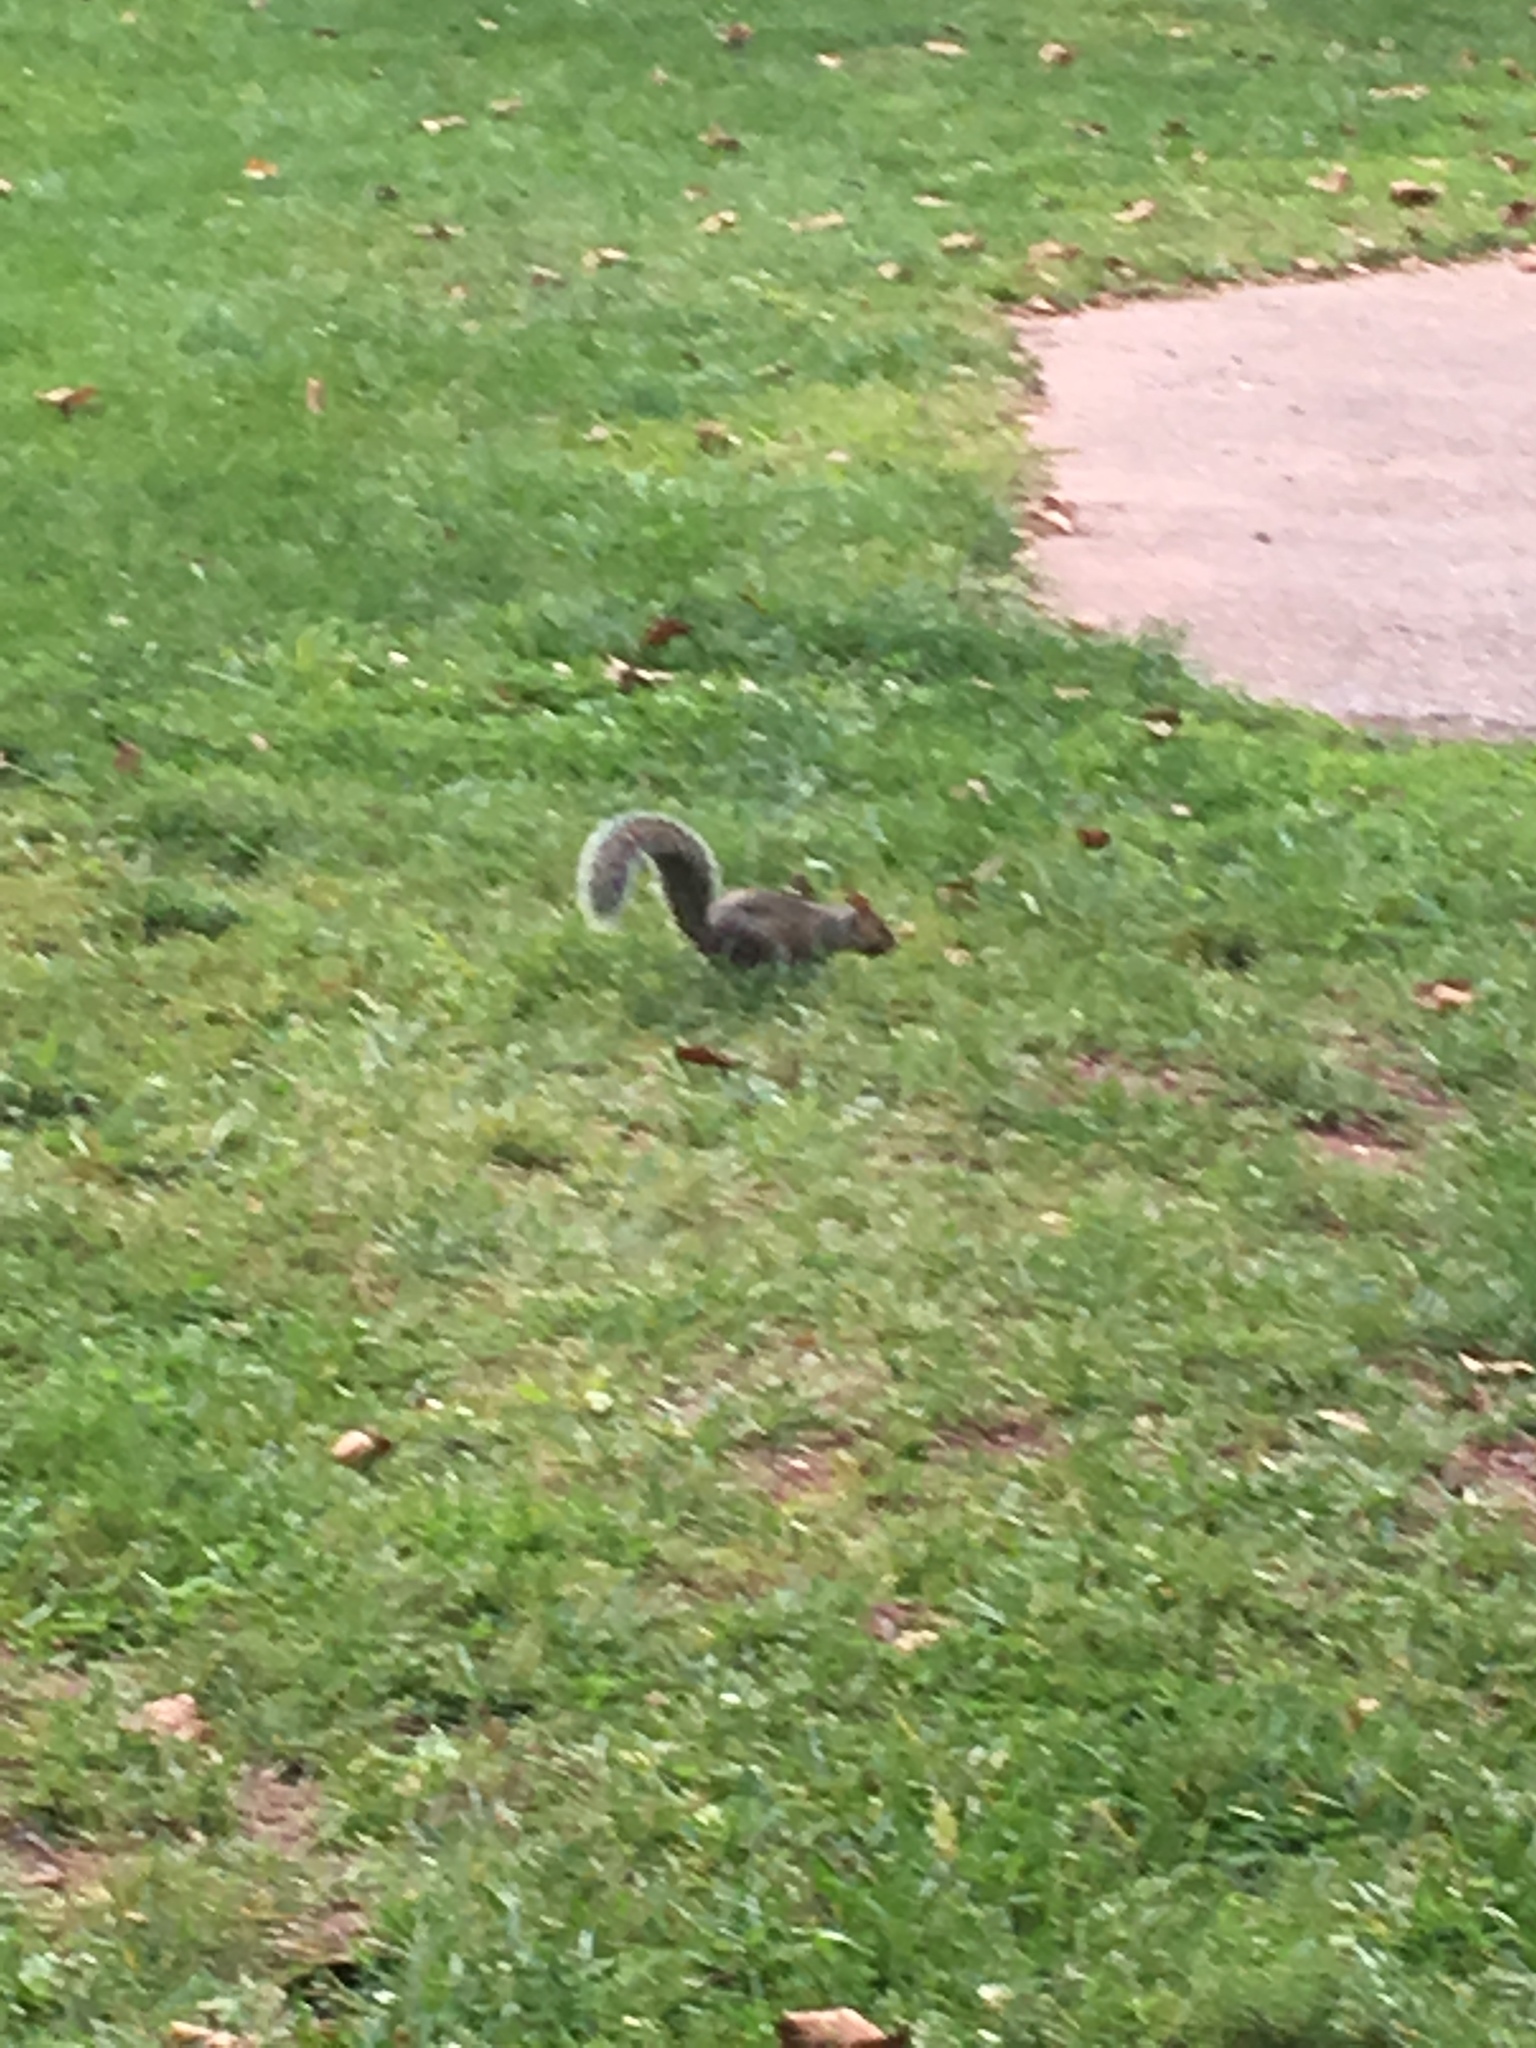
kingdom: Animalia
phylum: Chordata
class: Mammalia
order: Rodentia
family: Sciuridae
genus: Sciurus
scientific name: Sciurus carolinensis
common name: Eastern gray squirrel
